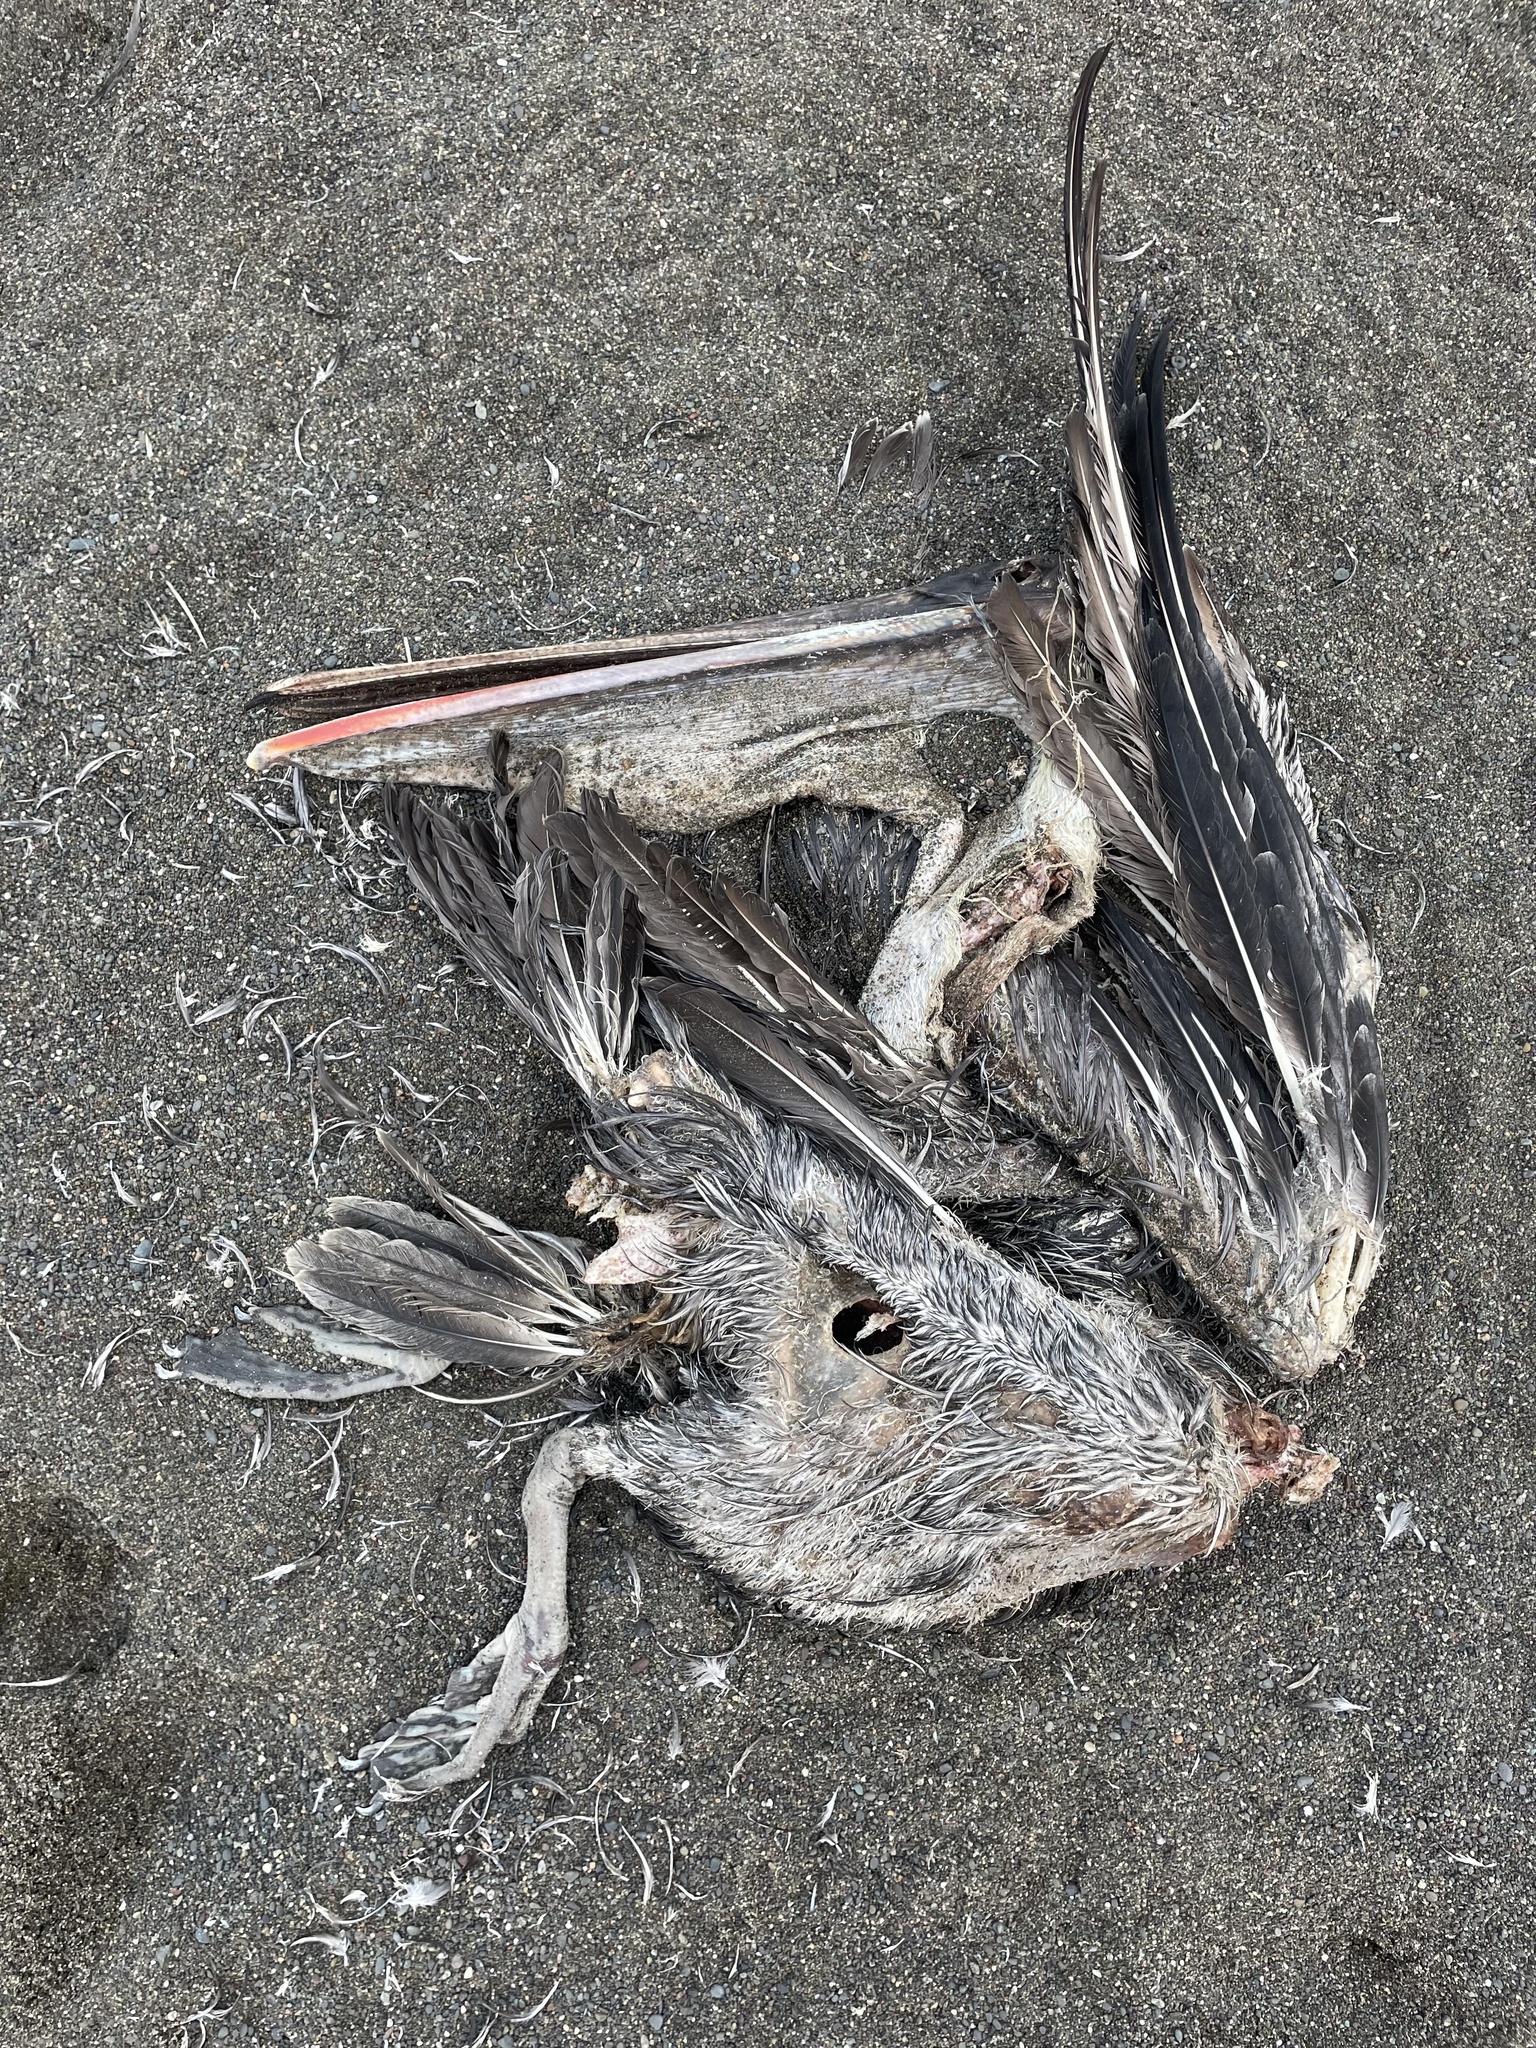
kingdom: Animalia
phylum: Chordata
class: Aves
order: Pelecaniformes
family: Pelecanidae
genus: Pelecanus
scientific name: Pelecanus occidentalis
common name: Brown pelican
